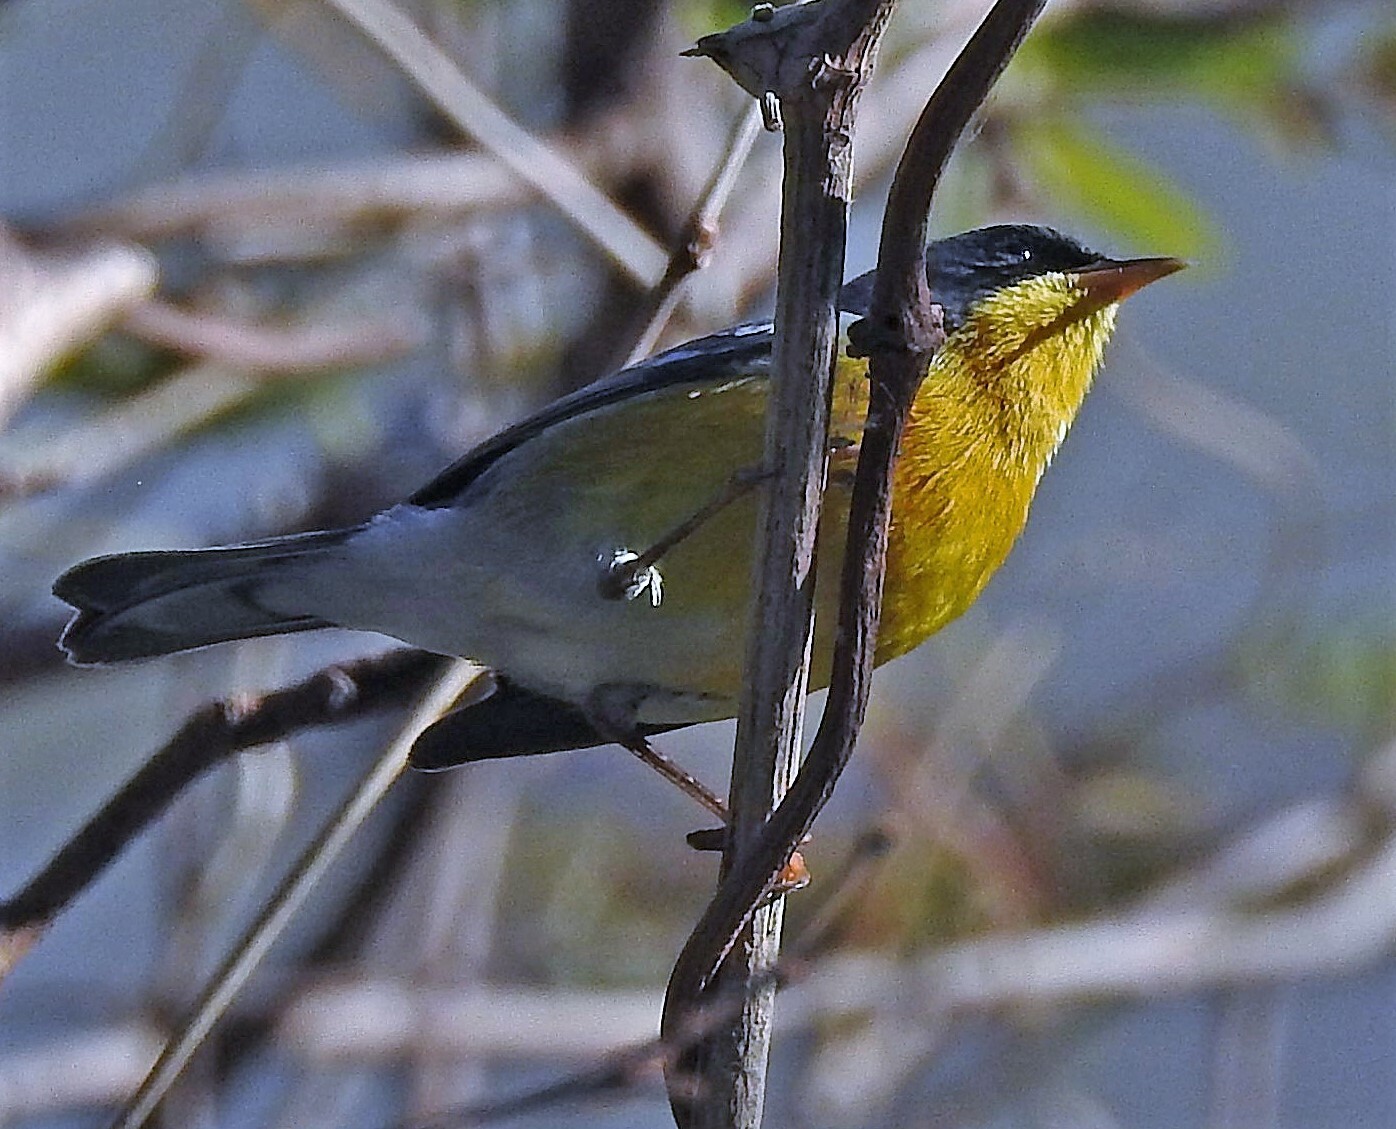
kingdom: Animalia
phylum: Chordata
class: Aves
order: Passeriformes
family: Parulidae
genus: Setophaga
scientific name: Setophaga pitiayumi
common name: Tropical parula
